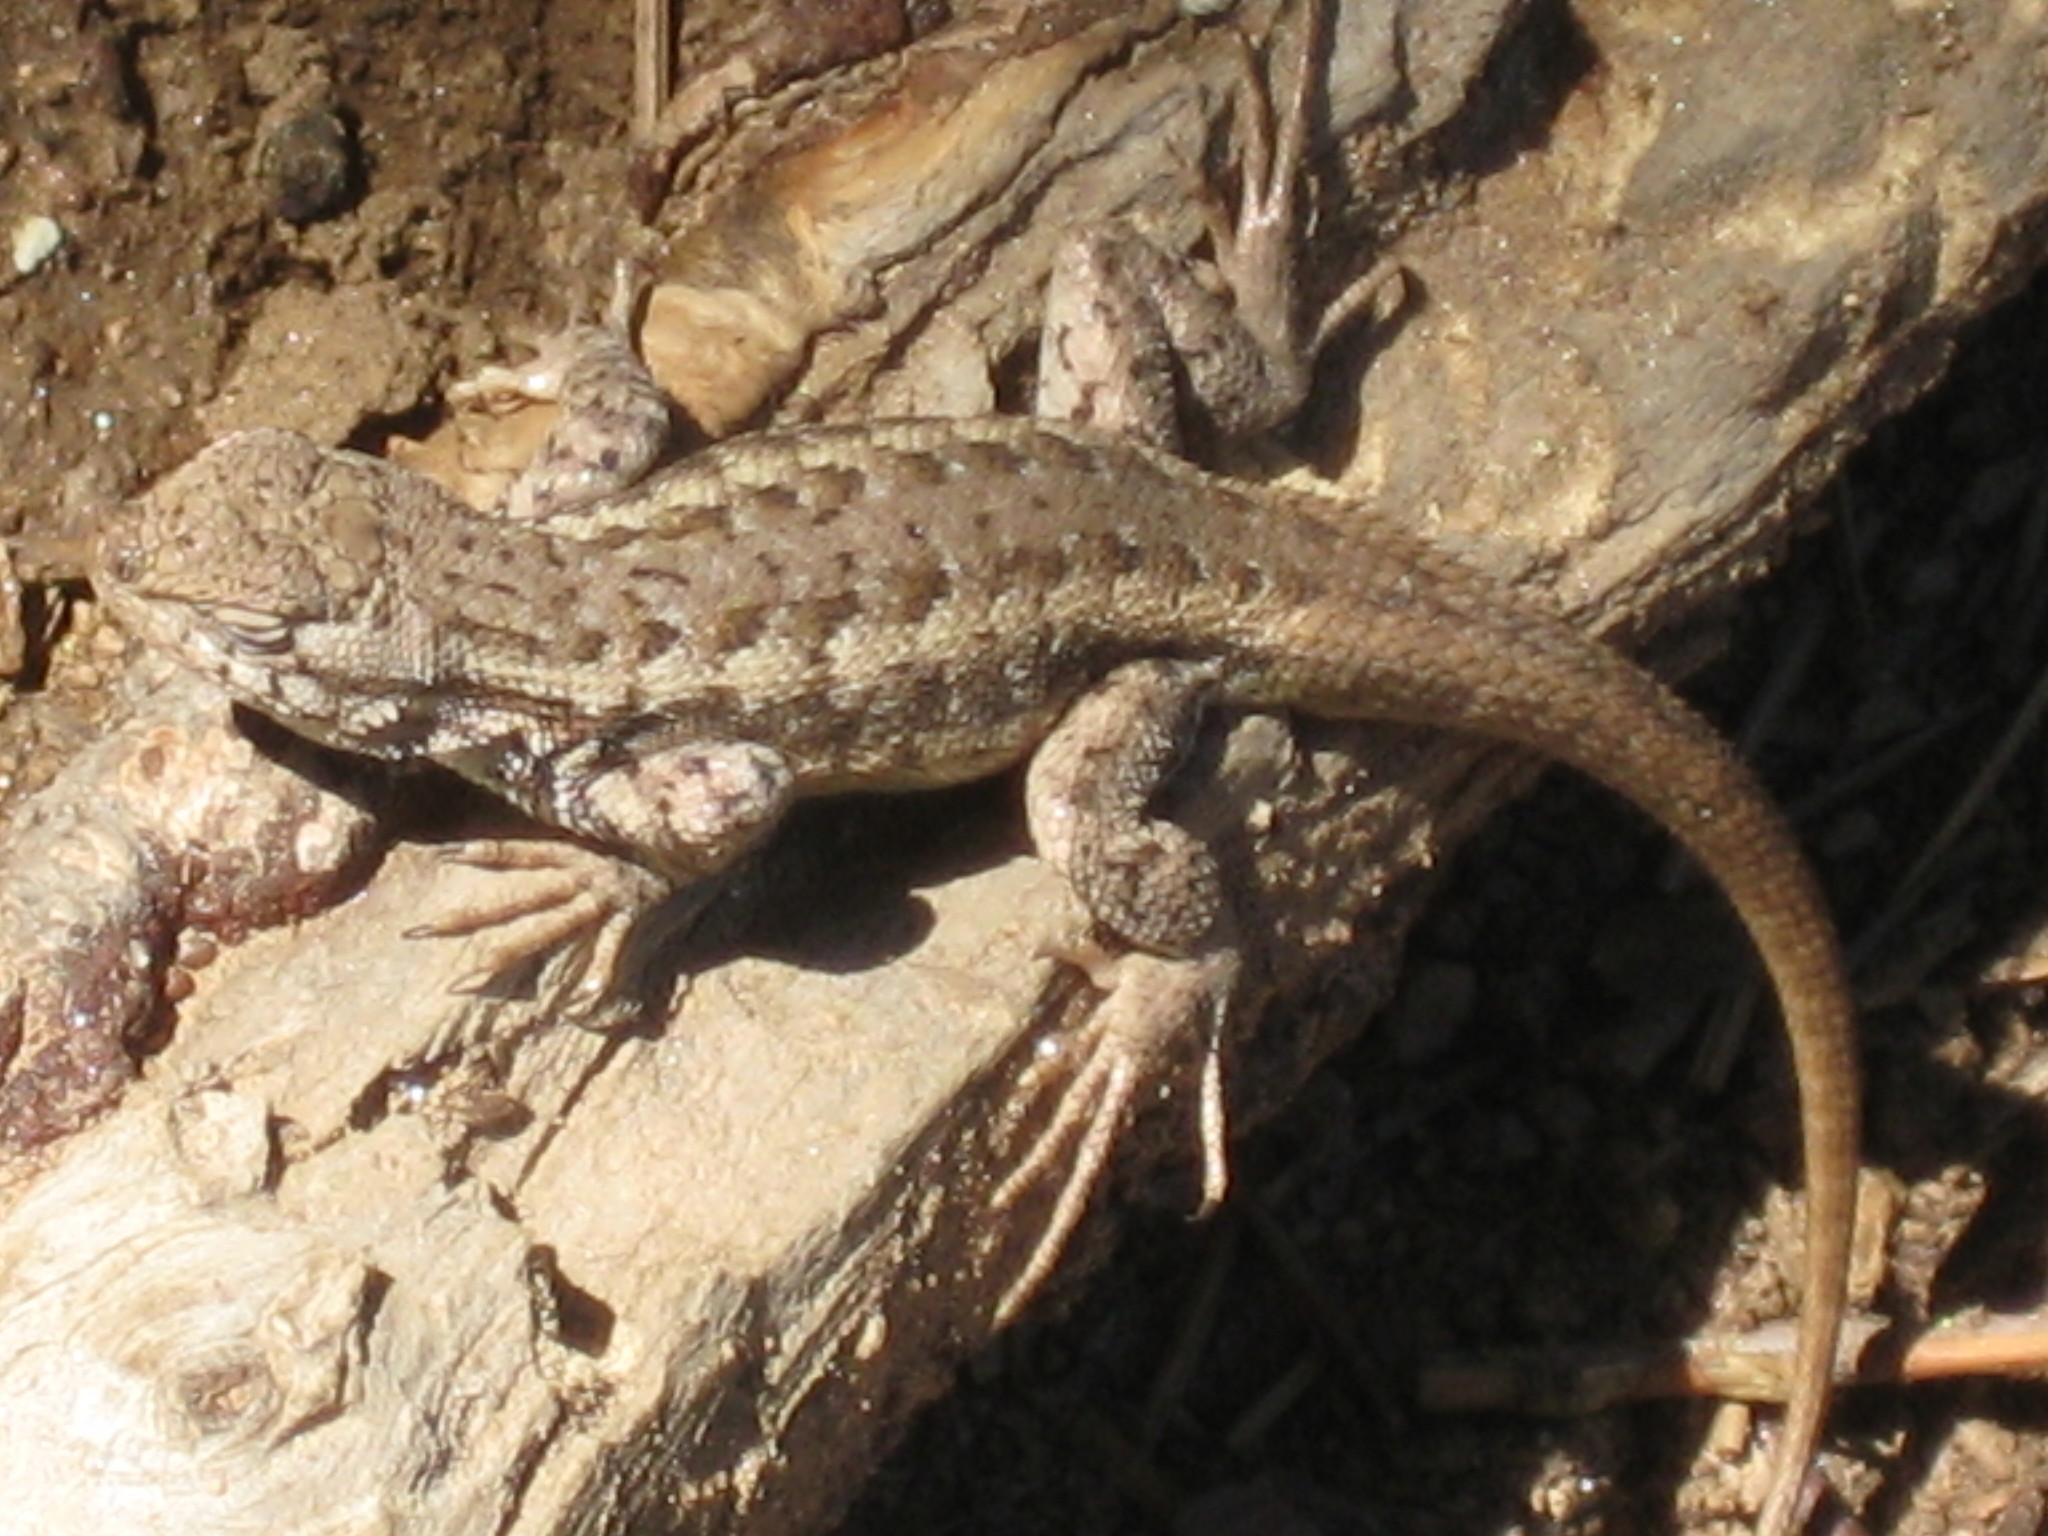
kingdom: Animalia
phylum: Chordata
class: Squamata
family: Phrynosomatidae
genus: Sceloporus
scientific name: Sceloporus graciosus
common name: Sagebrush lizard
